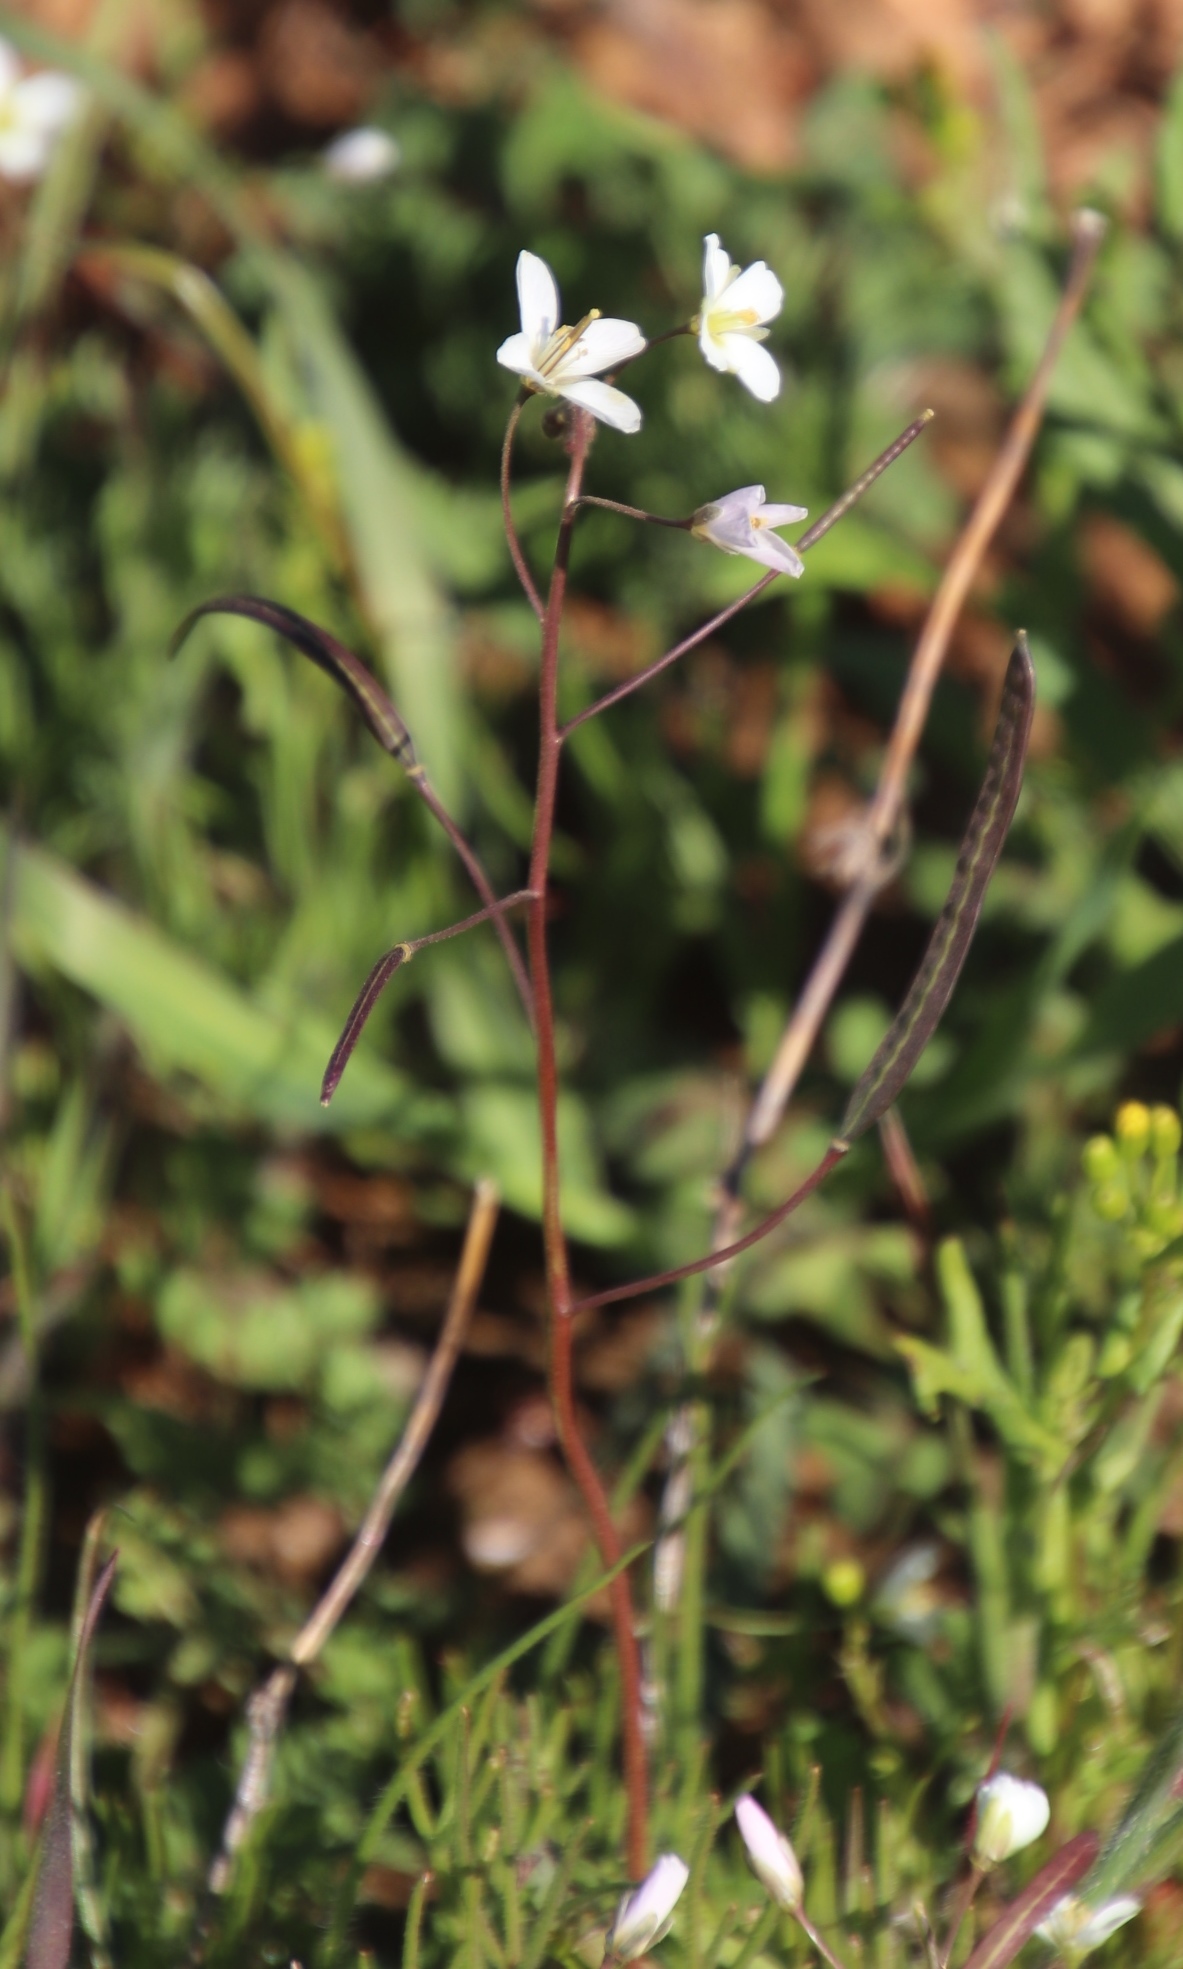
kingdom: Plantae
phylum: Tracheophyta
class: Magnoliopsida
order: Brassicales
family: Brassicaceae
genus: Heliophila
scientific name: Heliophila crithmifolia
